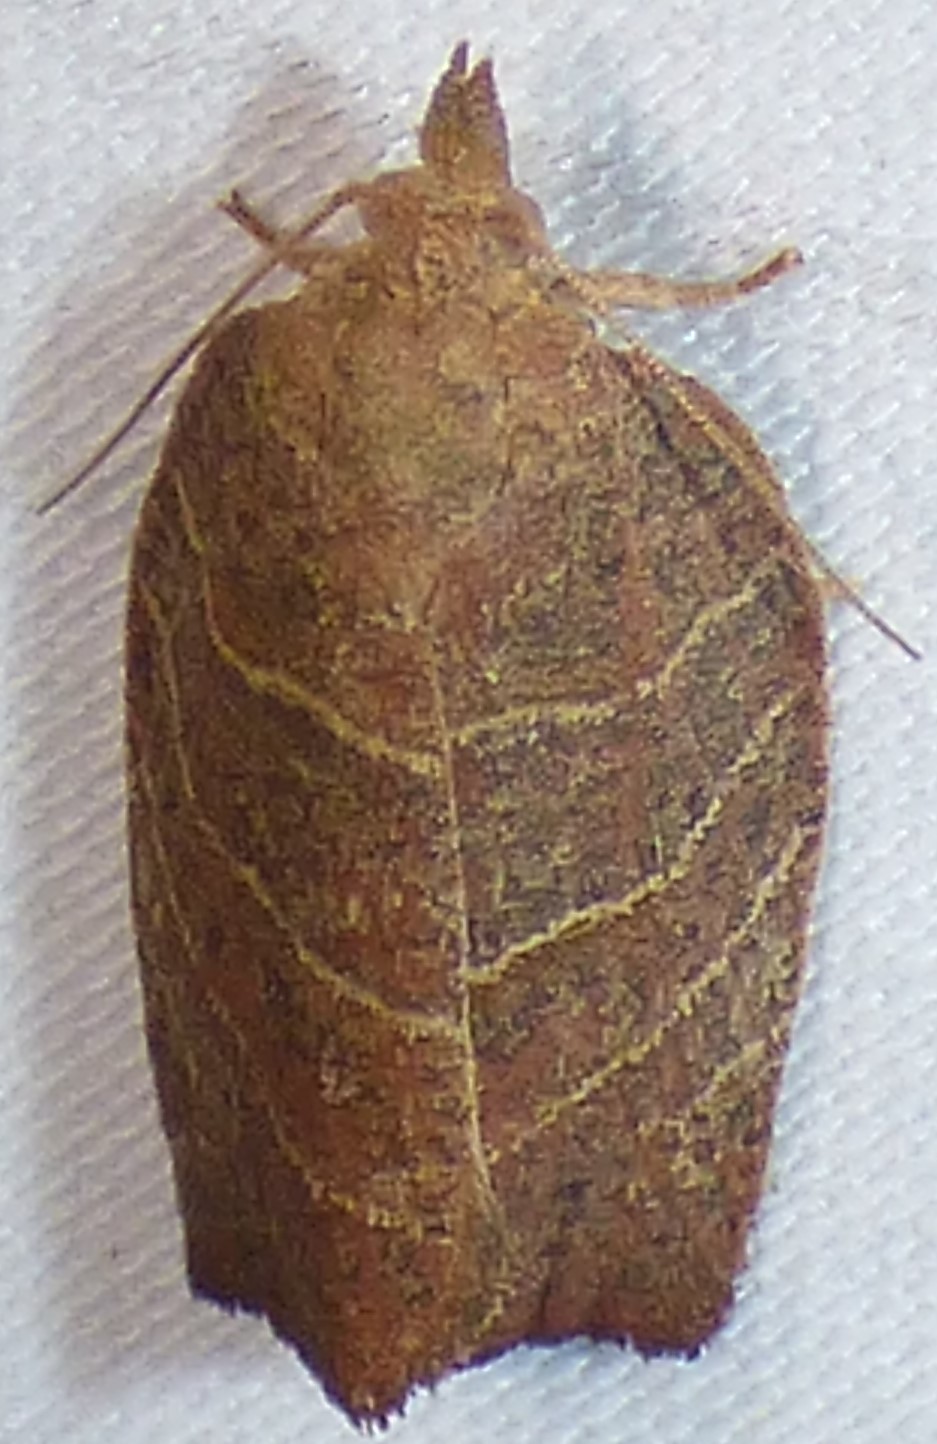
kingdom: Animalia
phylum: Arthropoda
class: Insecta
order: Lepidoptera
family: Tortricidae
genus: Pandemis
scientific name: Pandemis limitata
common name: Three-lined leafroller moth
